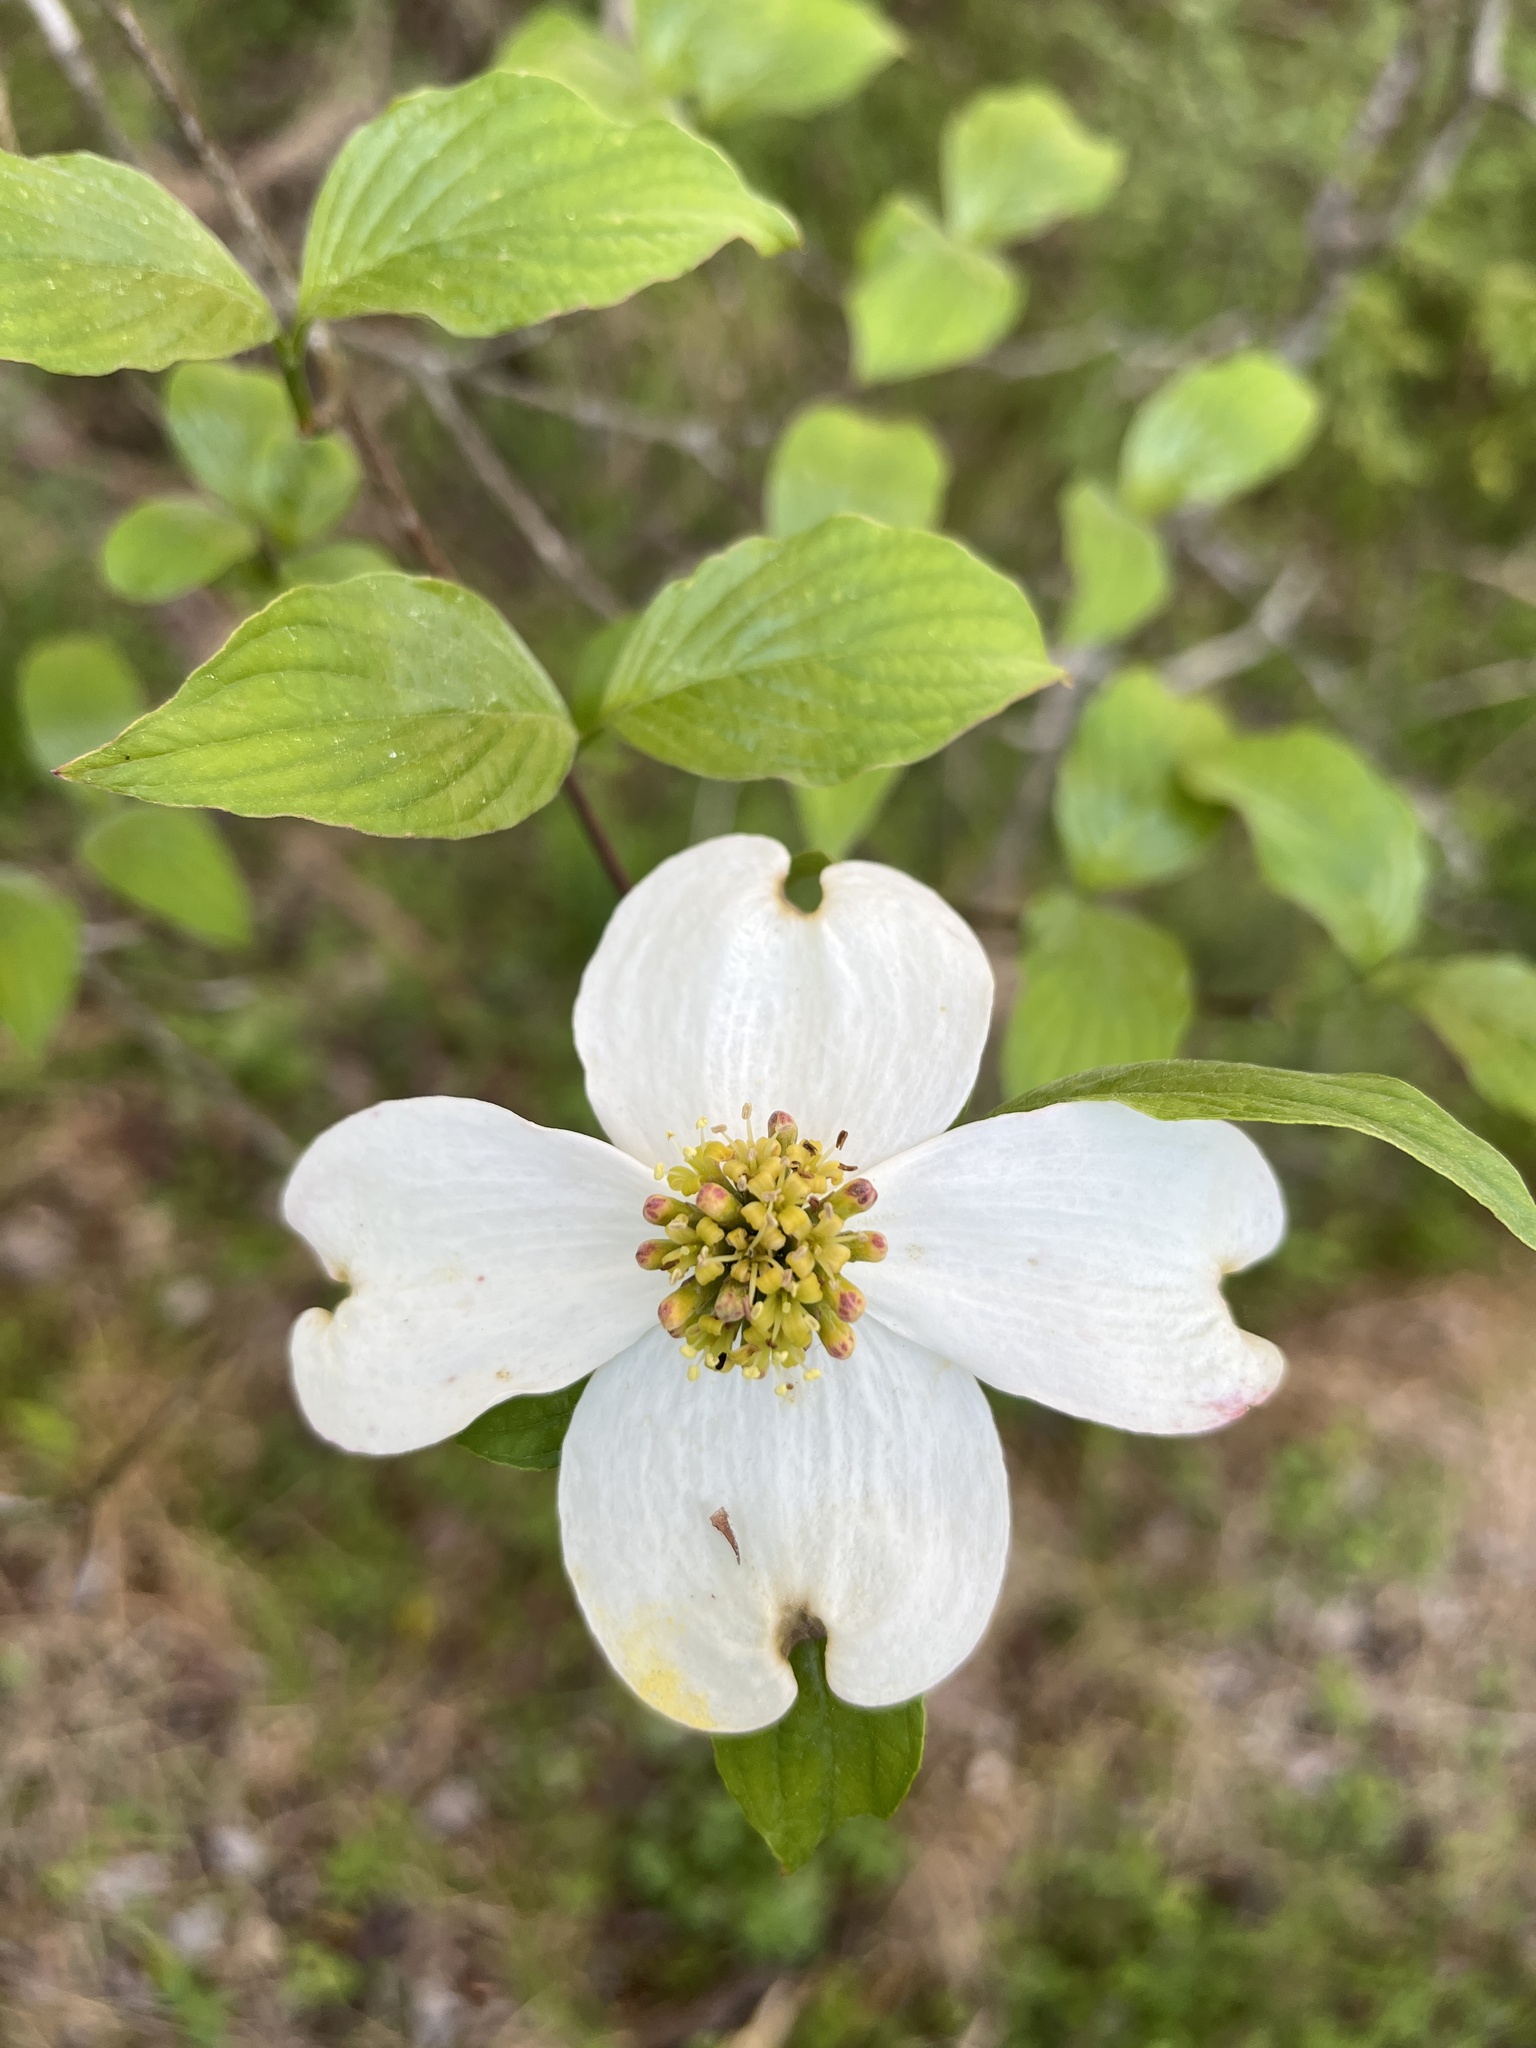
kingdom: Plantae
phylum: Tracheophyta
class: Magnoliopsida
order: Cornales
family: Cornaceae
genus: Cornus
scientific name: Cornus florida
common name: Flowering dogwood
